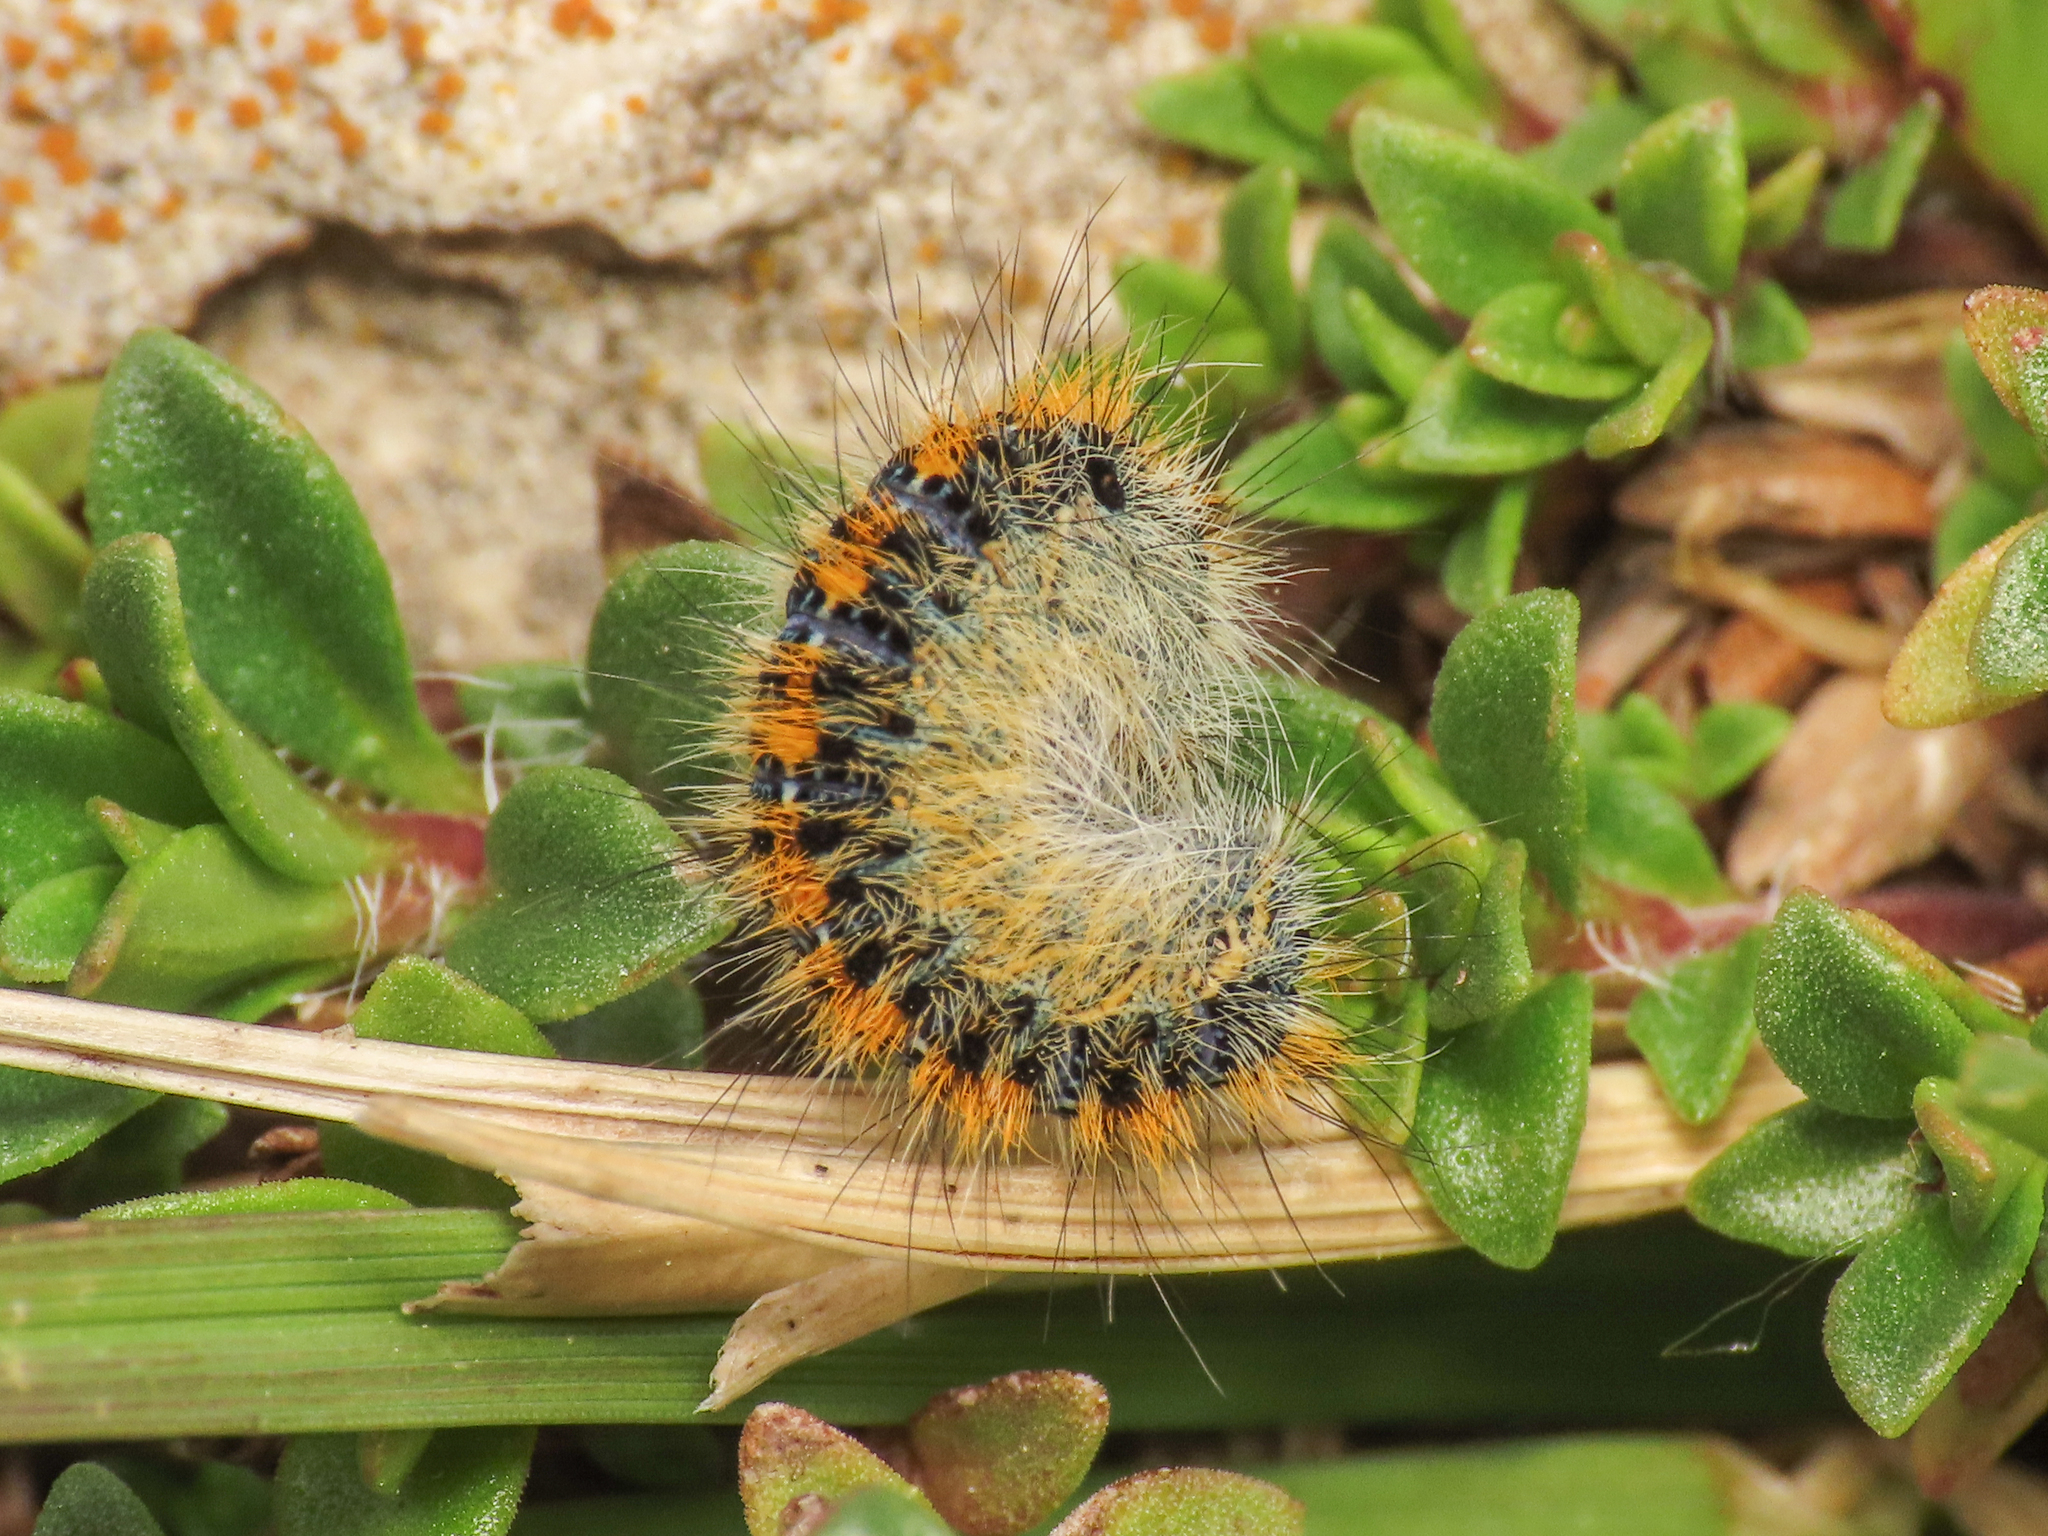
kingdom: Animalia
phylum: Arthropoda
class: Insecta
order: Lepidoptera
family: Lasiocampidae
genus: Lasiocampa
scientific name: Lasiocampa trifolii
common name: Grass eggar
